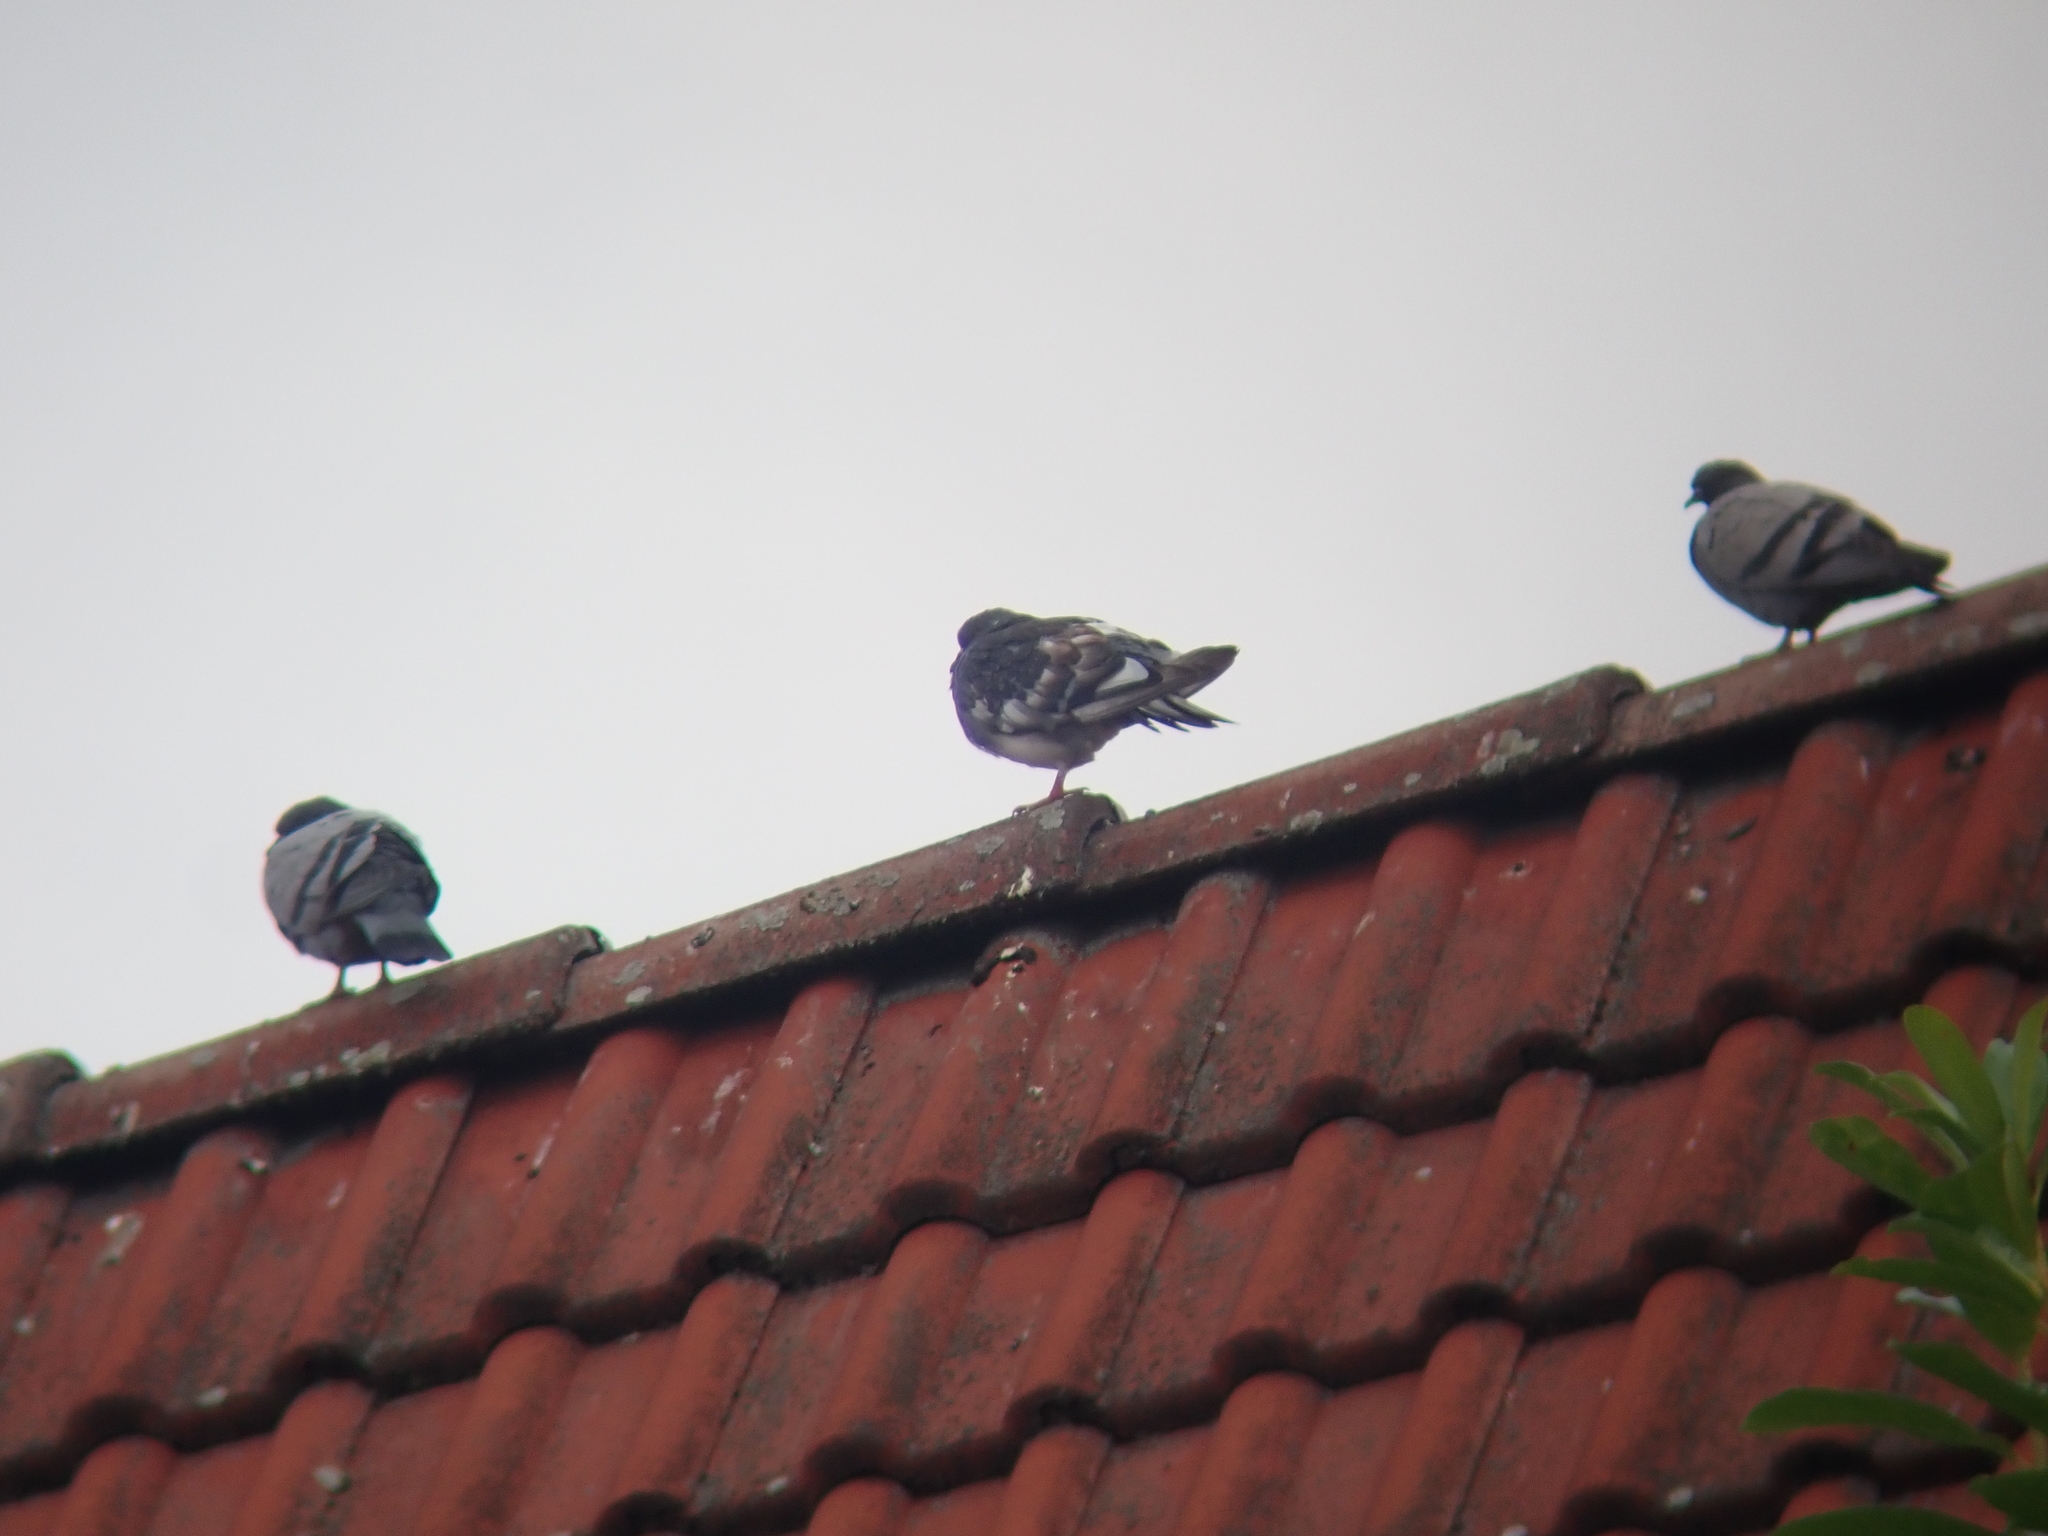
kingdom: Animalia
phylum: Chordata
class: Aves
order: Columbiformes
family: Columbidae
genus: Columba
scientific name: Columba livia
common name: Rock pigeon
